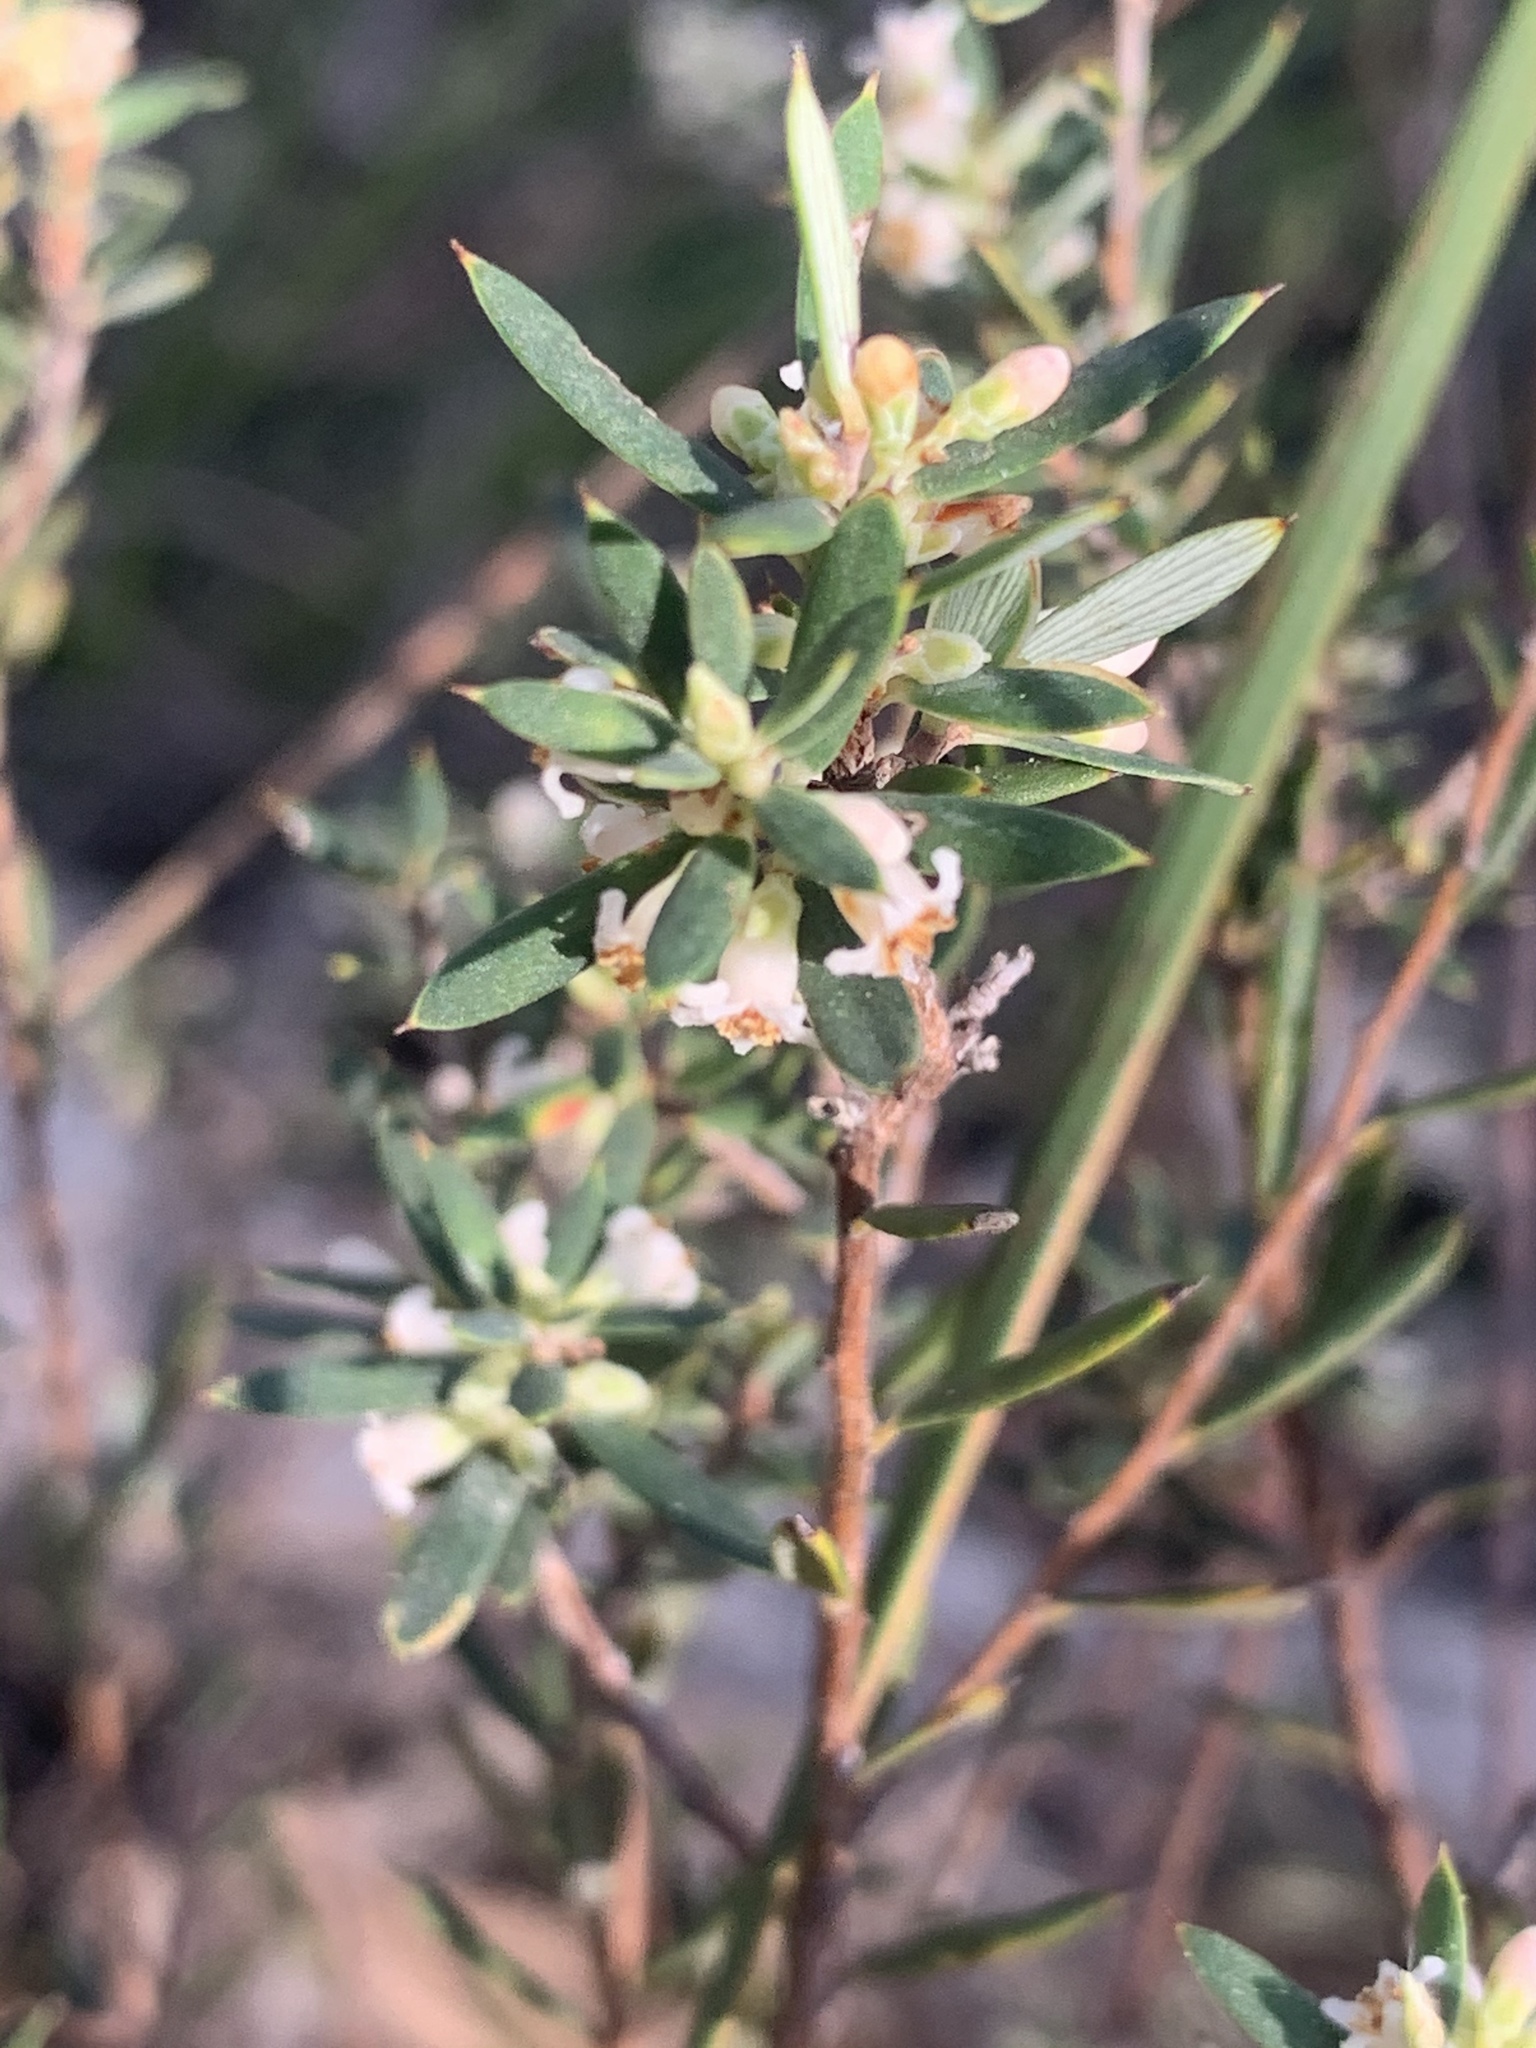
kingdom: Plantae
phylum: Tracheophyta
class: Magnoliopsida
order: Ericales
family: Ericaceae
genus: Monotoca
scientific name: Monotoca scoparia
